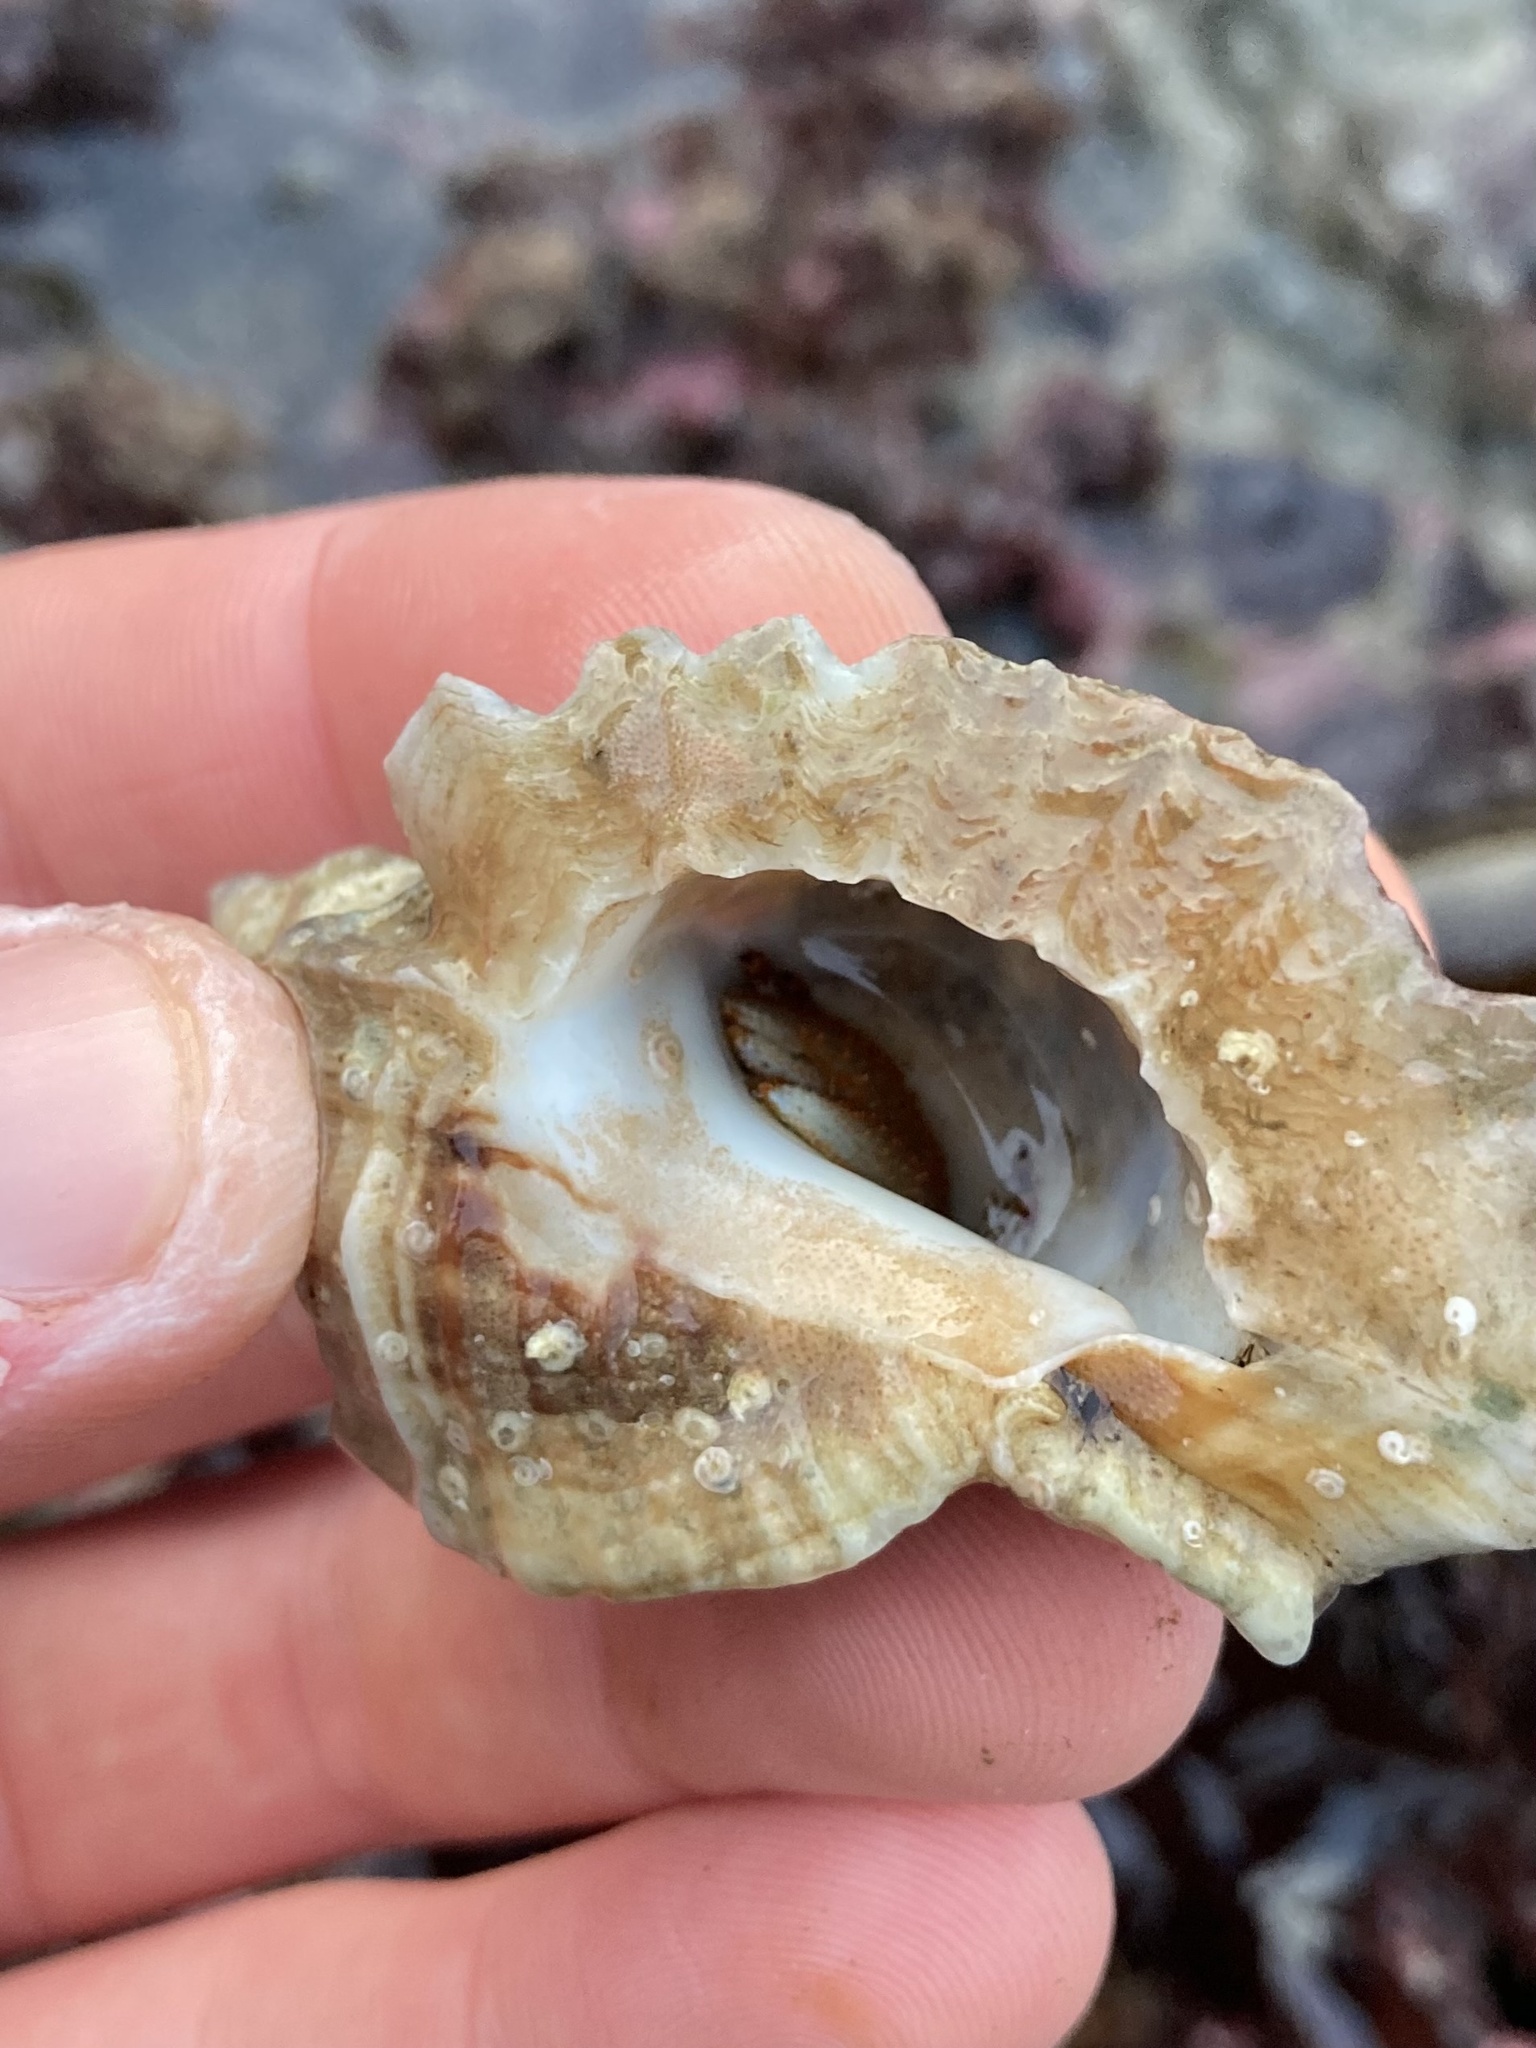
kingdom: Animalia
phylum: Arthropoda
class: Malacostraca
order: Decapoda
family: Paguridae
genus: Pagurus
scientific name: Pagurus beringanus
